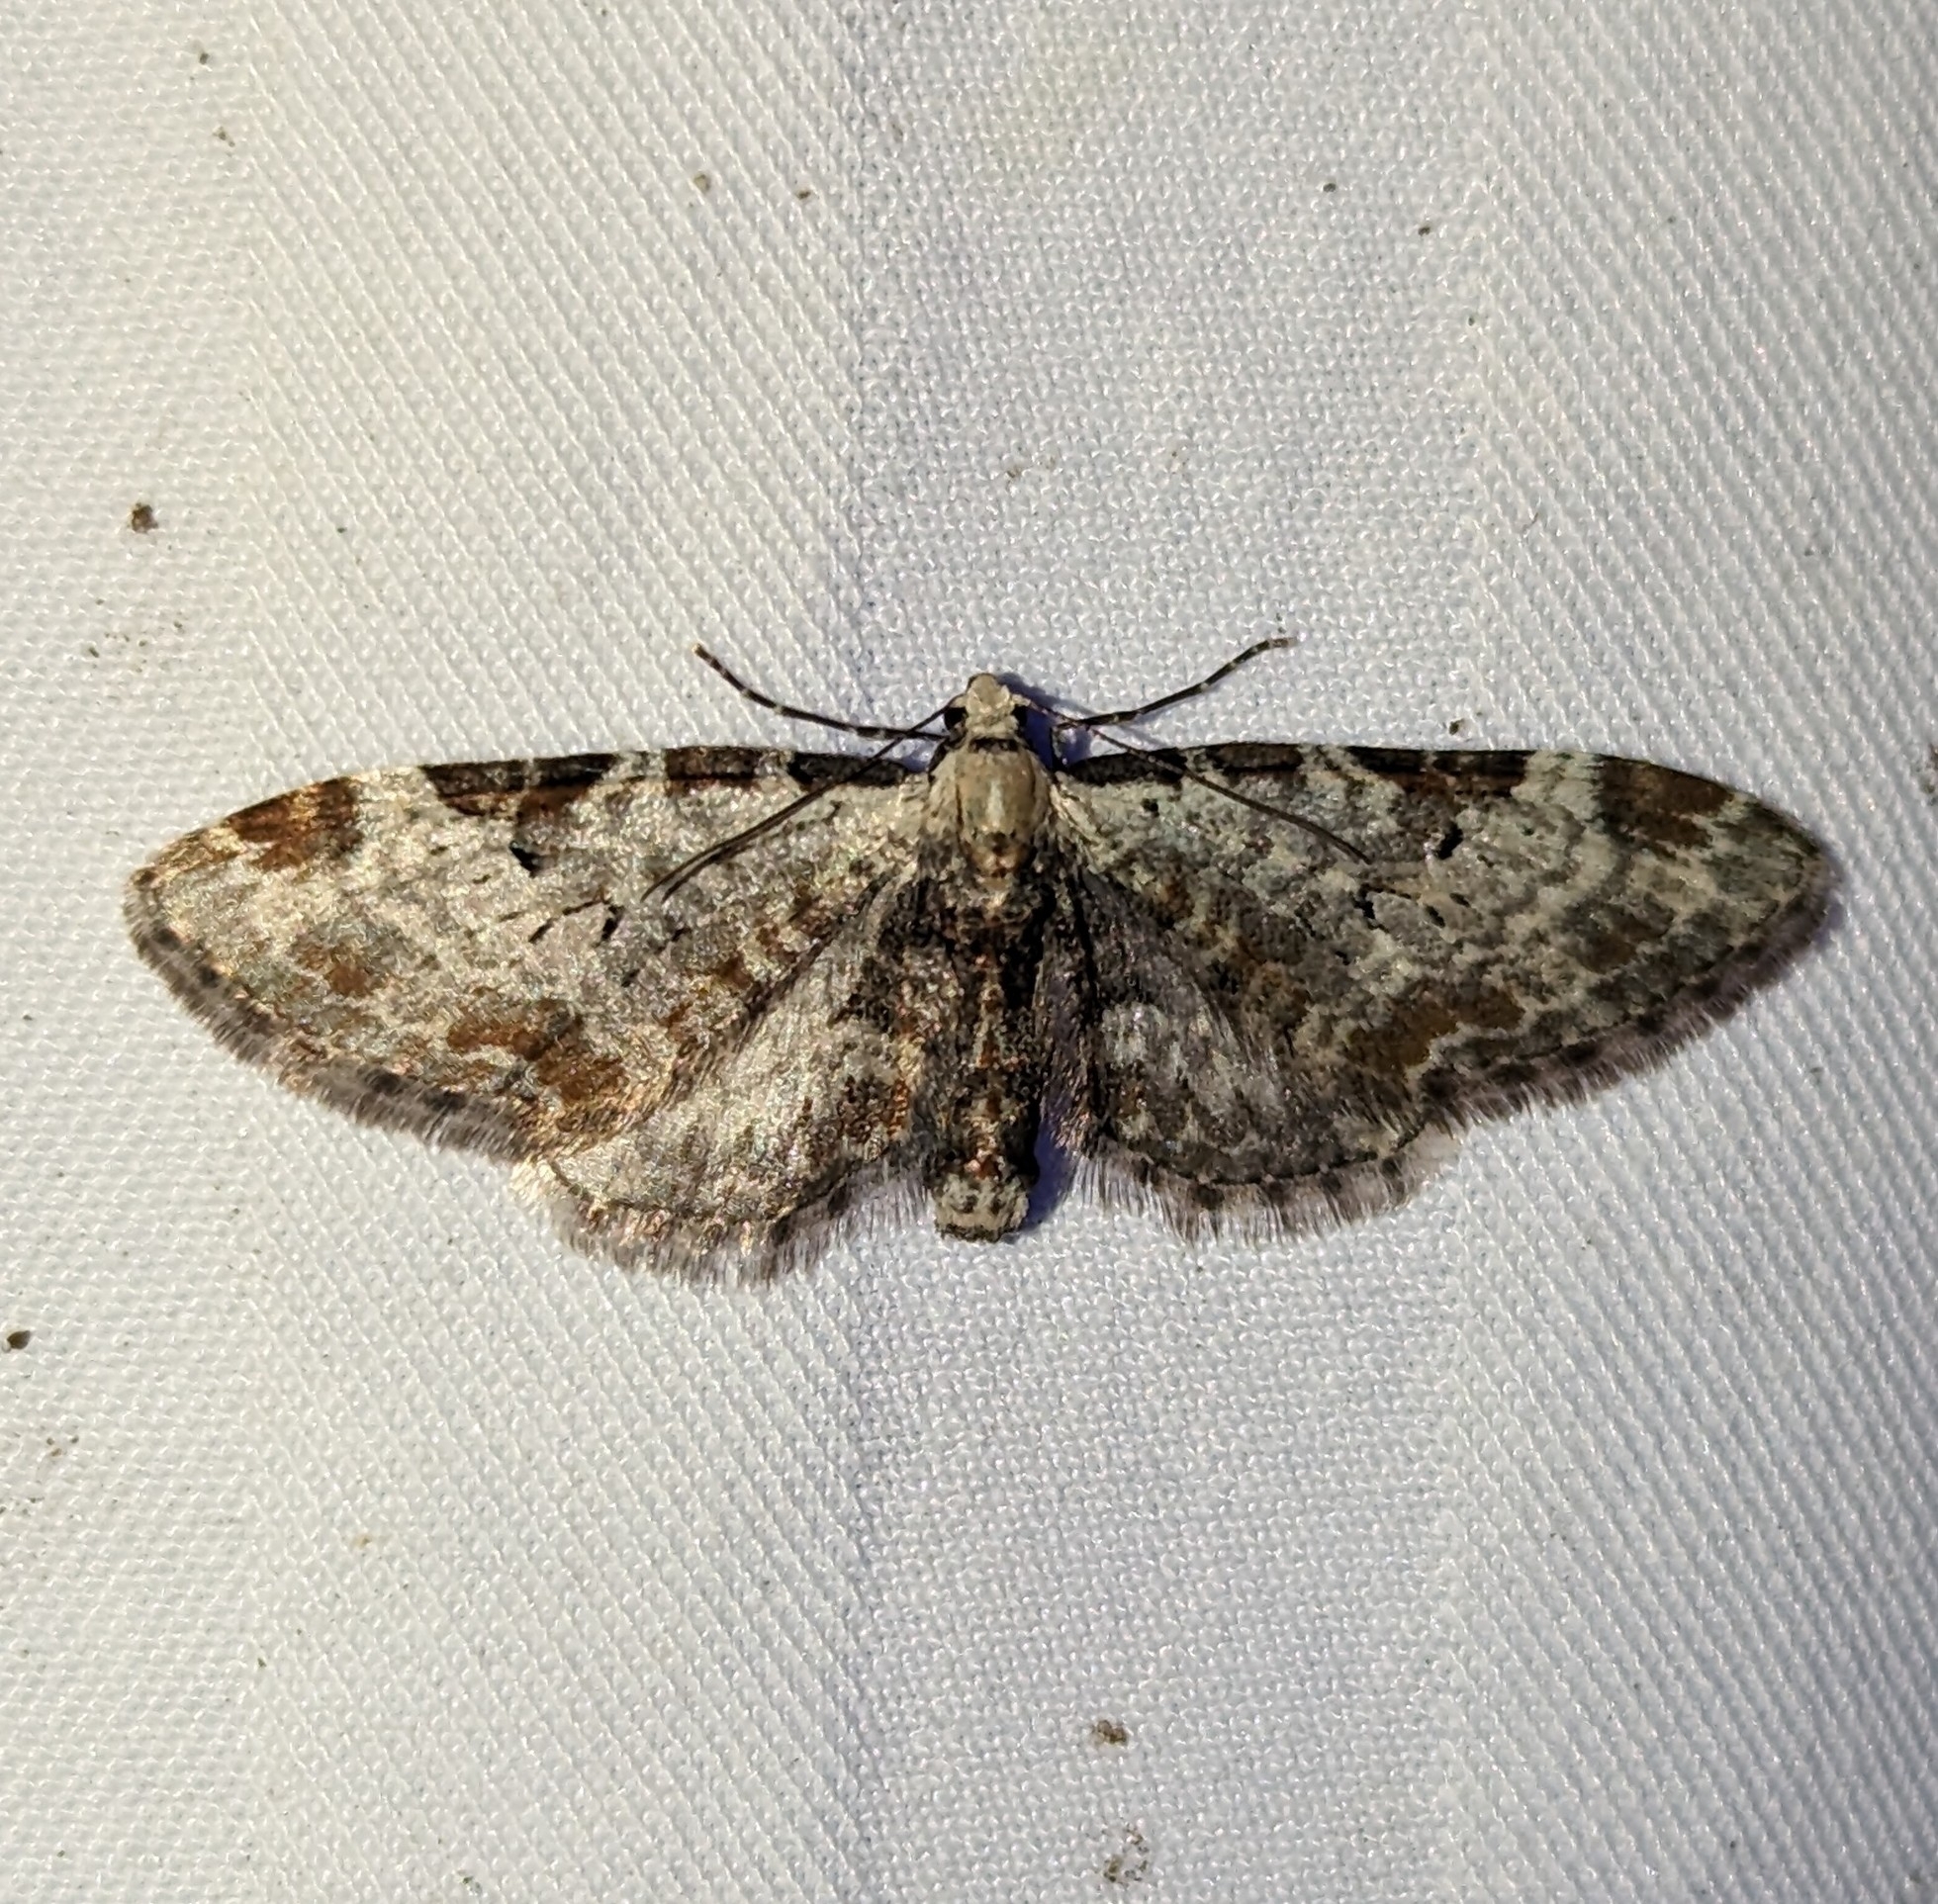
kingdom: Animalia
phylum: Arthropoda
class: Insecta
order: Lepidoptera
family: Geometridae
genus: Eupithecia
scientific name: Eupithecia ravocostaliata
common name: Great varigated pug
